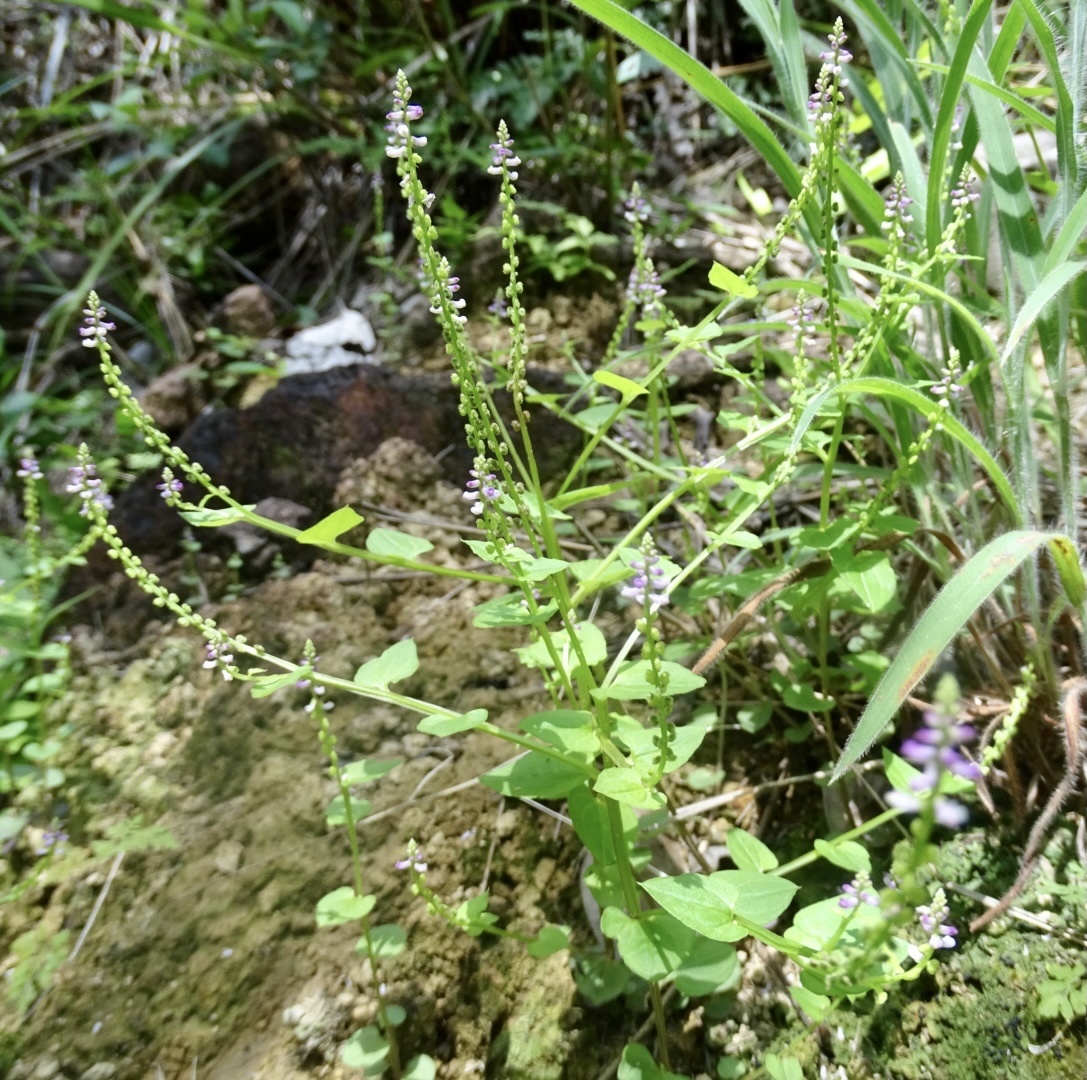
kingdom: Plantae
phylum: Tracheophyta
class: Magnoliopsida
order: Fabales
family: Polygalaceae
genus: Salomonia
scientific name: Salomonia cantoniensis
